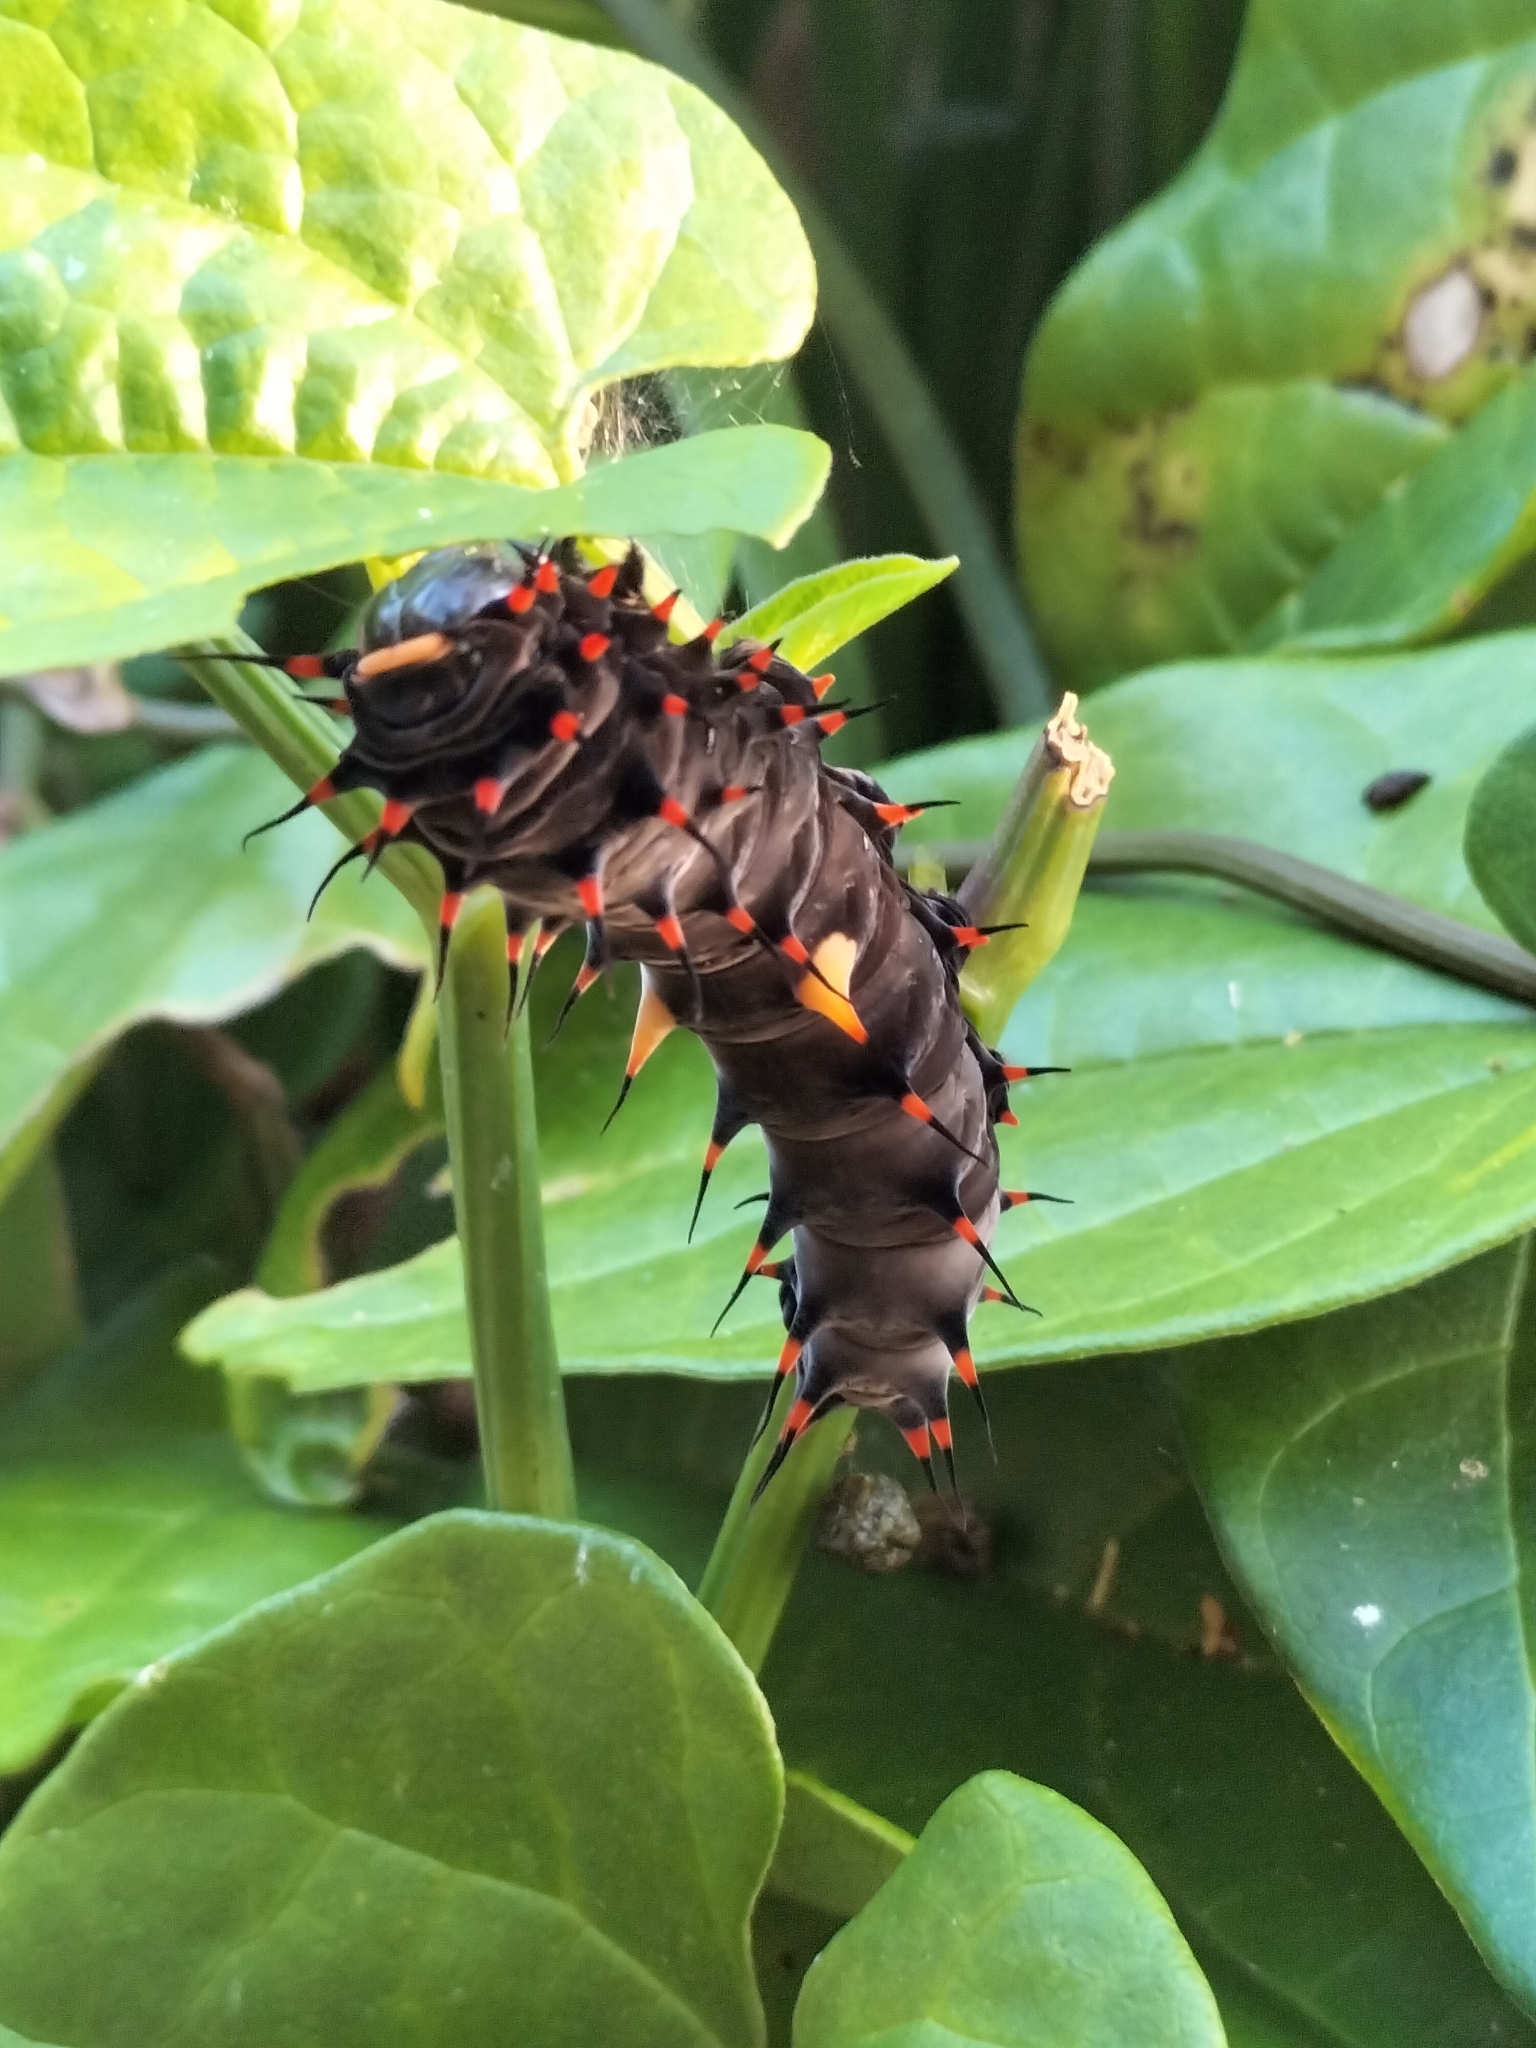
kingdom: Animalia
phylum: Arthropoda
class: Insecta
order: Lepidoptera
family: Papilionidae
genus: Ornithoptera
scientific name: Ornithoptera euphorion
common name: Cairns birdwing
